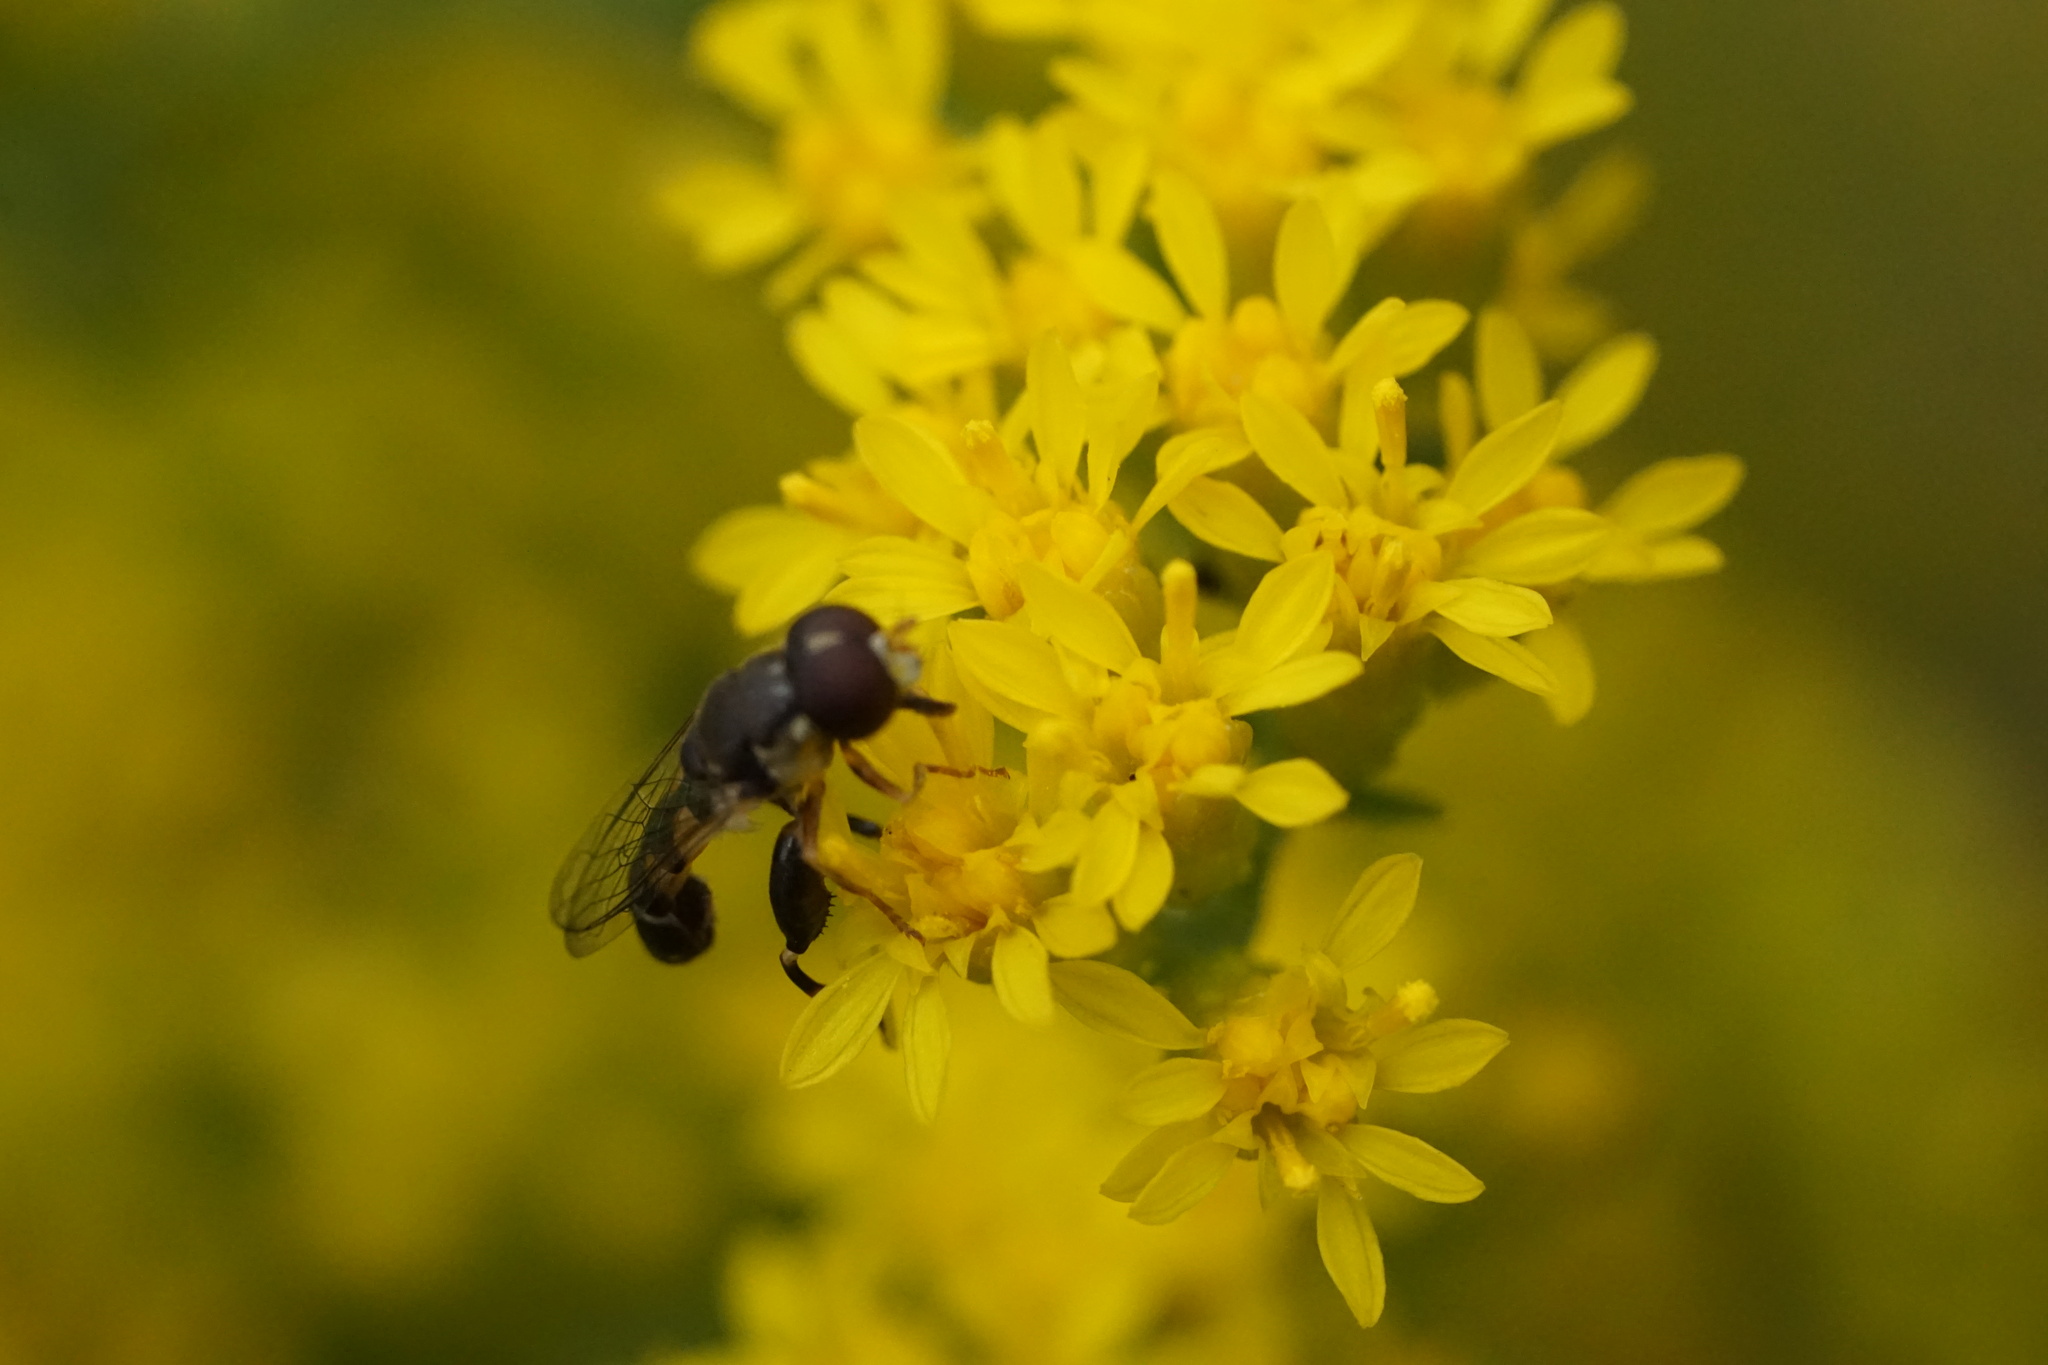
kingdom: Animalia
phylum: Arthropoda
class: Insecta
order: Diptera
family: Syrphidae
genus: Syritta
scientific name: Syritta pipiens
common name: Hover fly
